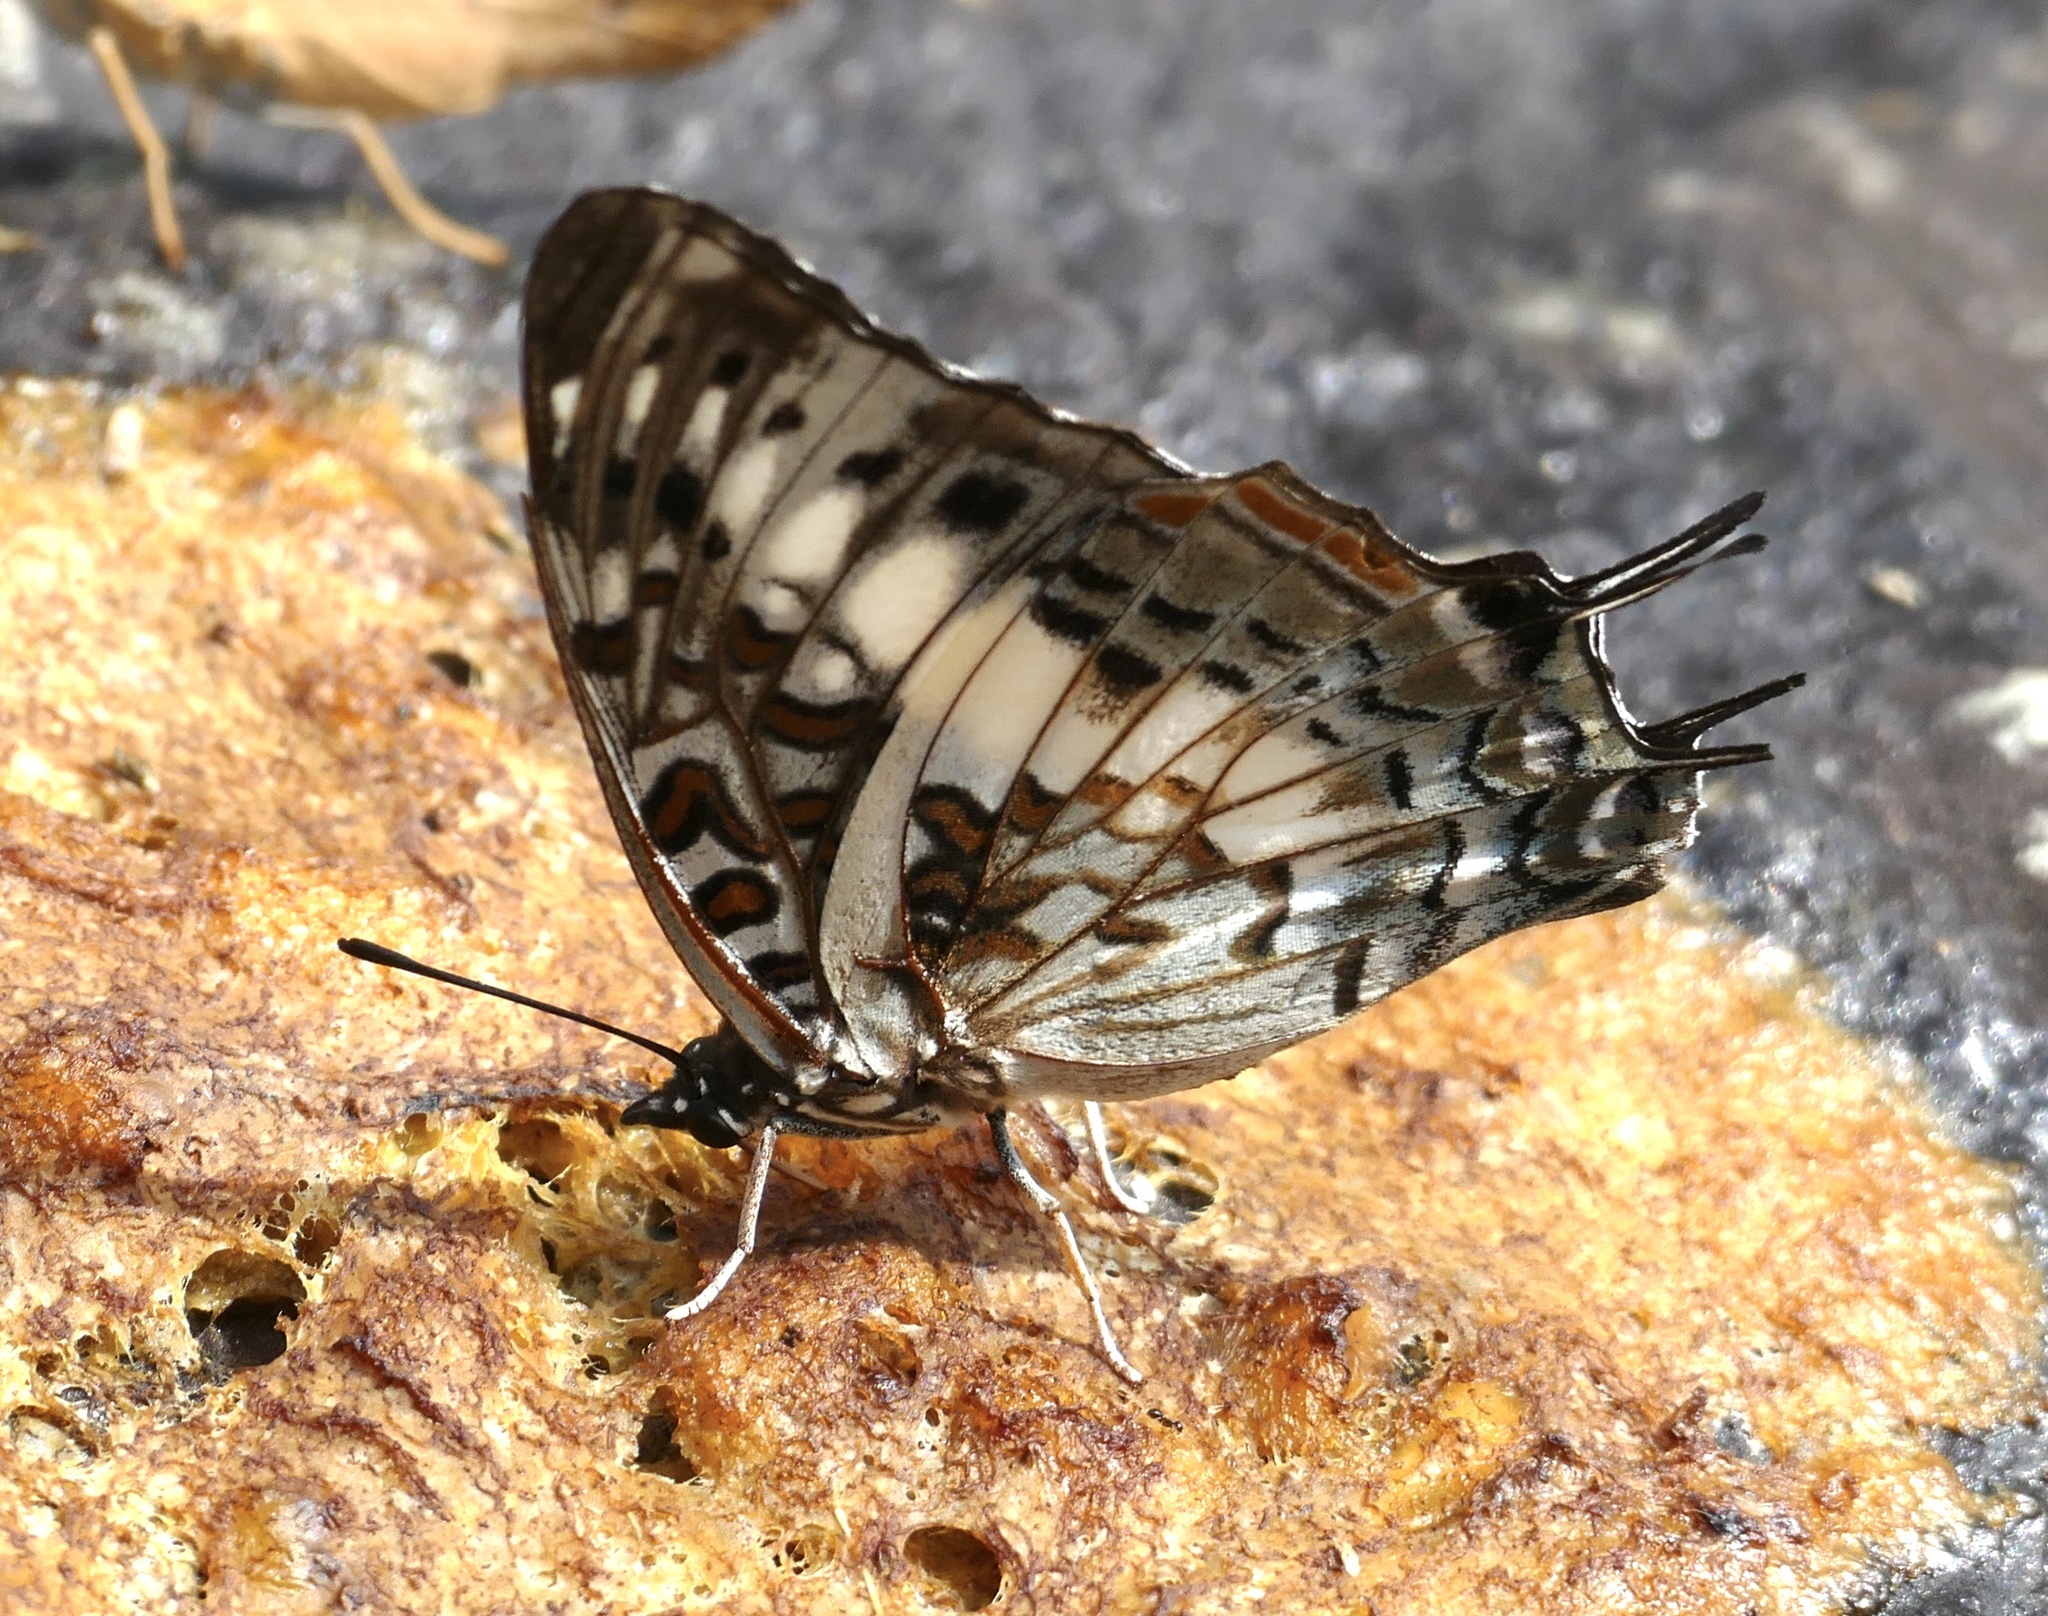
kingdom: Animalia
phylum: Arthropoda
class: Insecta
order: Lepidoptera
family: Nymphalidae
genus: Charaxes
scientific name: Charaxes etesipe
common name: Savannah charaxes
